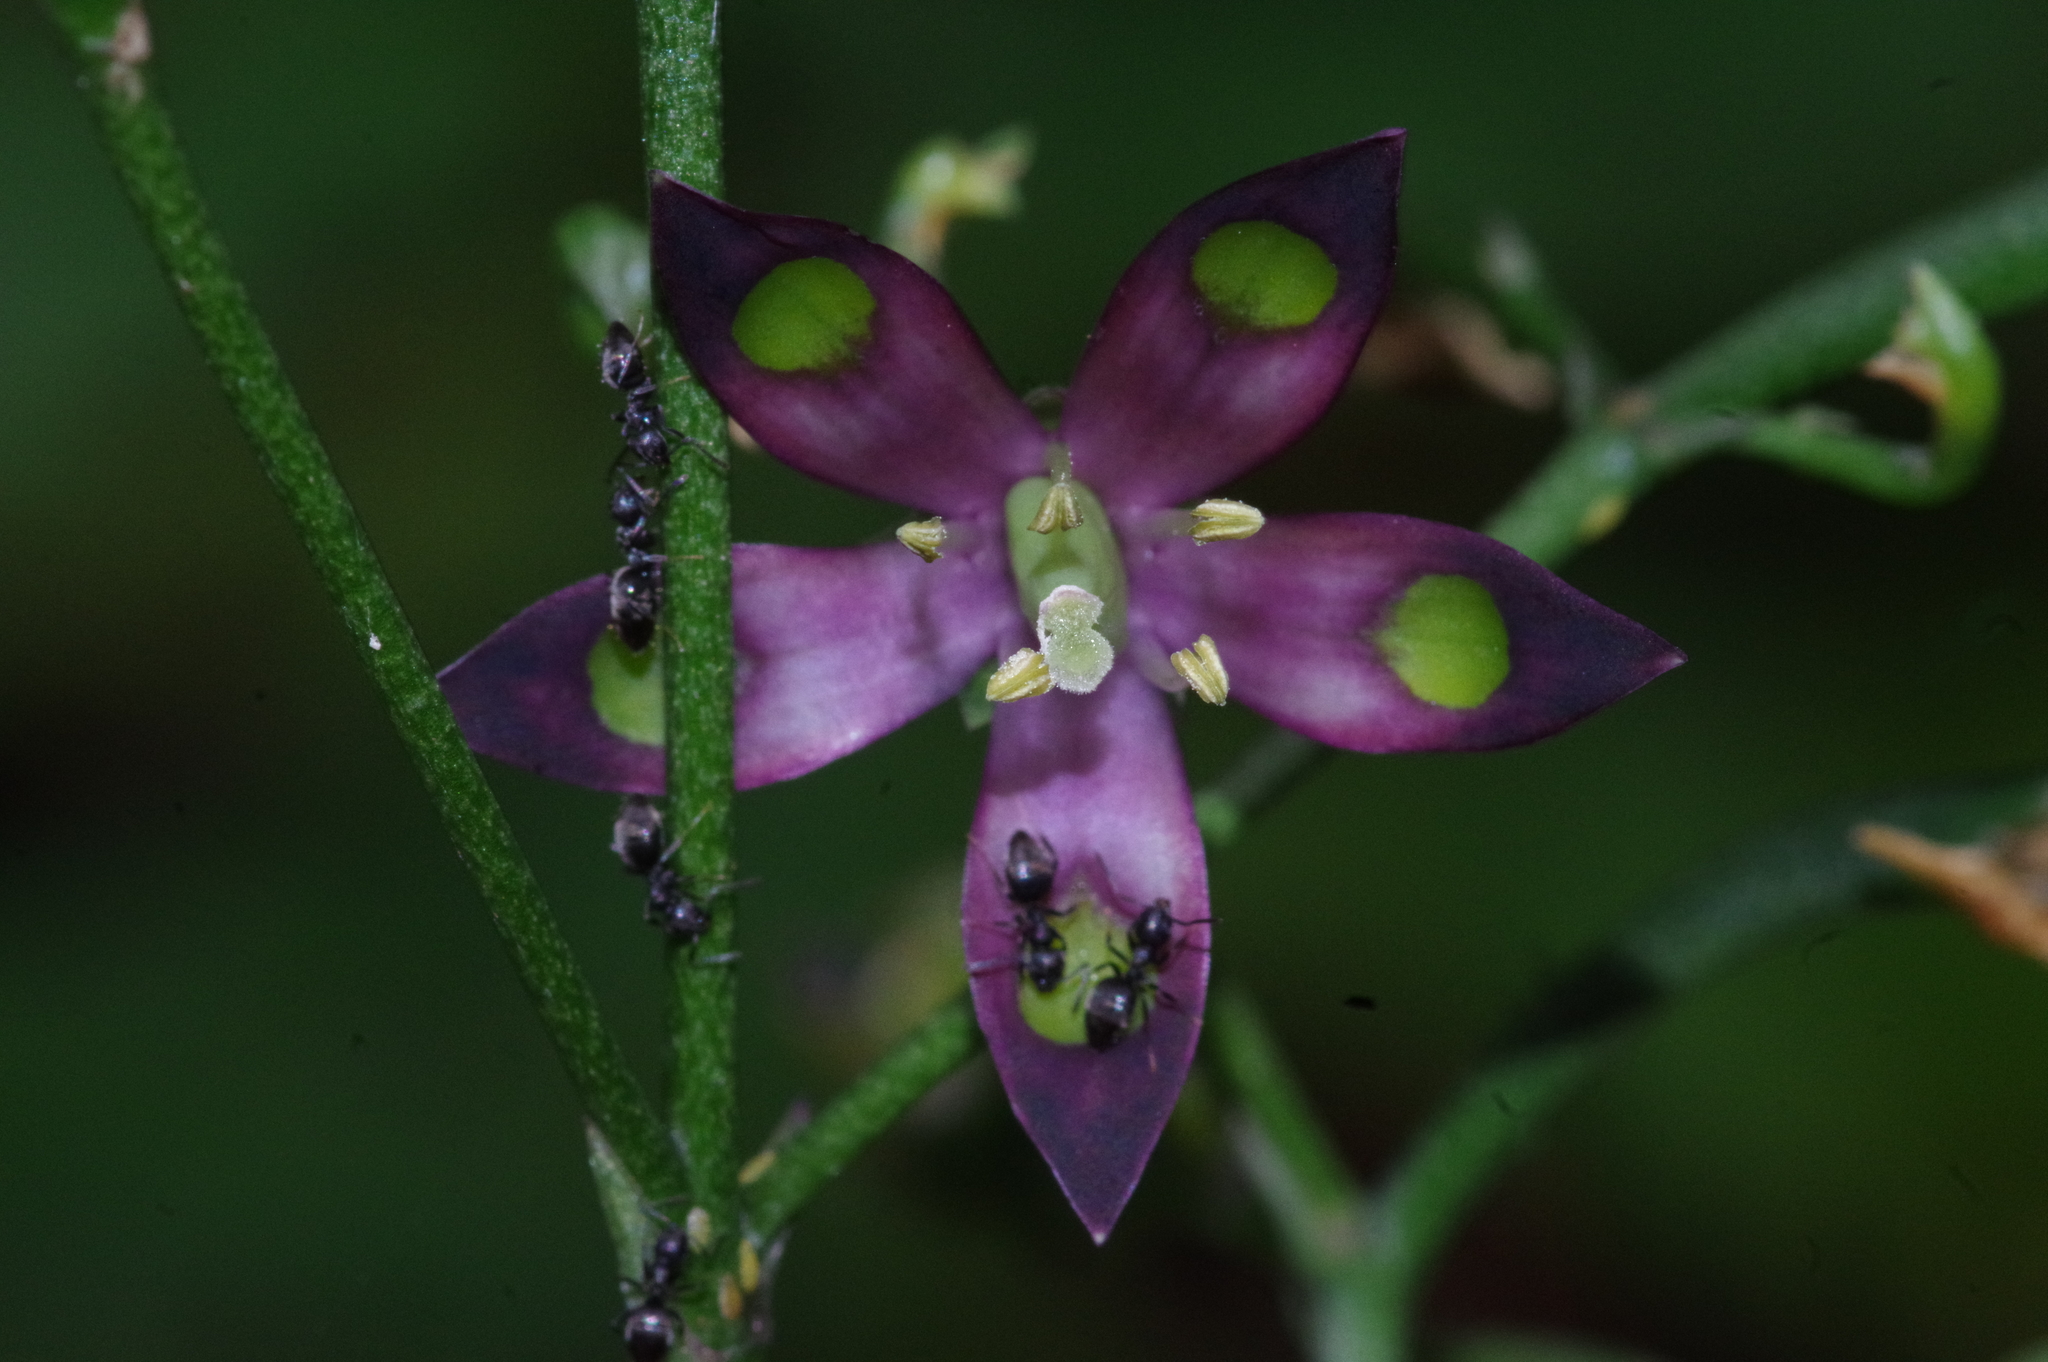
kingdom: Plantae
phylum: Tracheophyta
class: Magnoliopsida
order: Gentianales
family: Gentianaceae
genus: Swertia
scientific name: Swertia tashiroi
